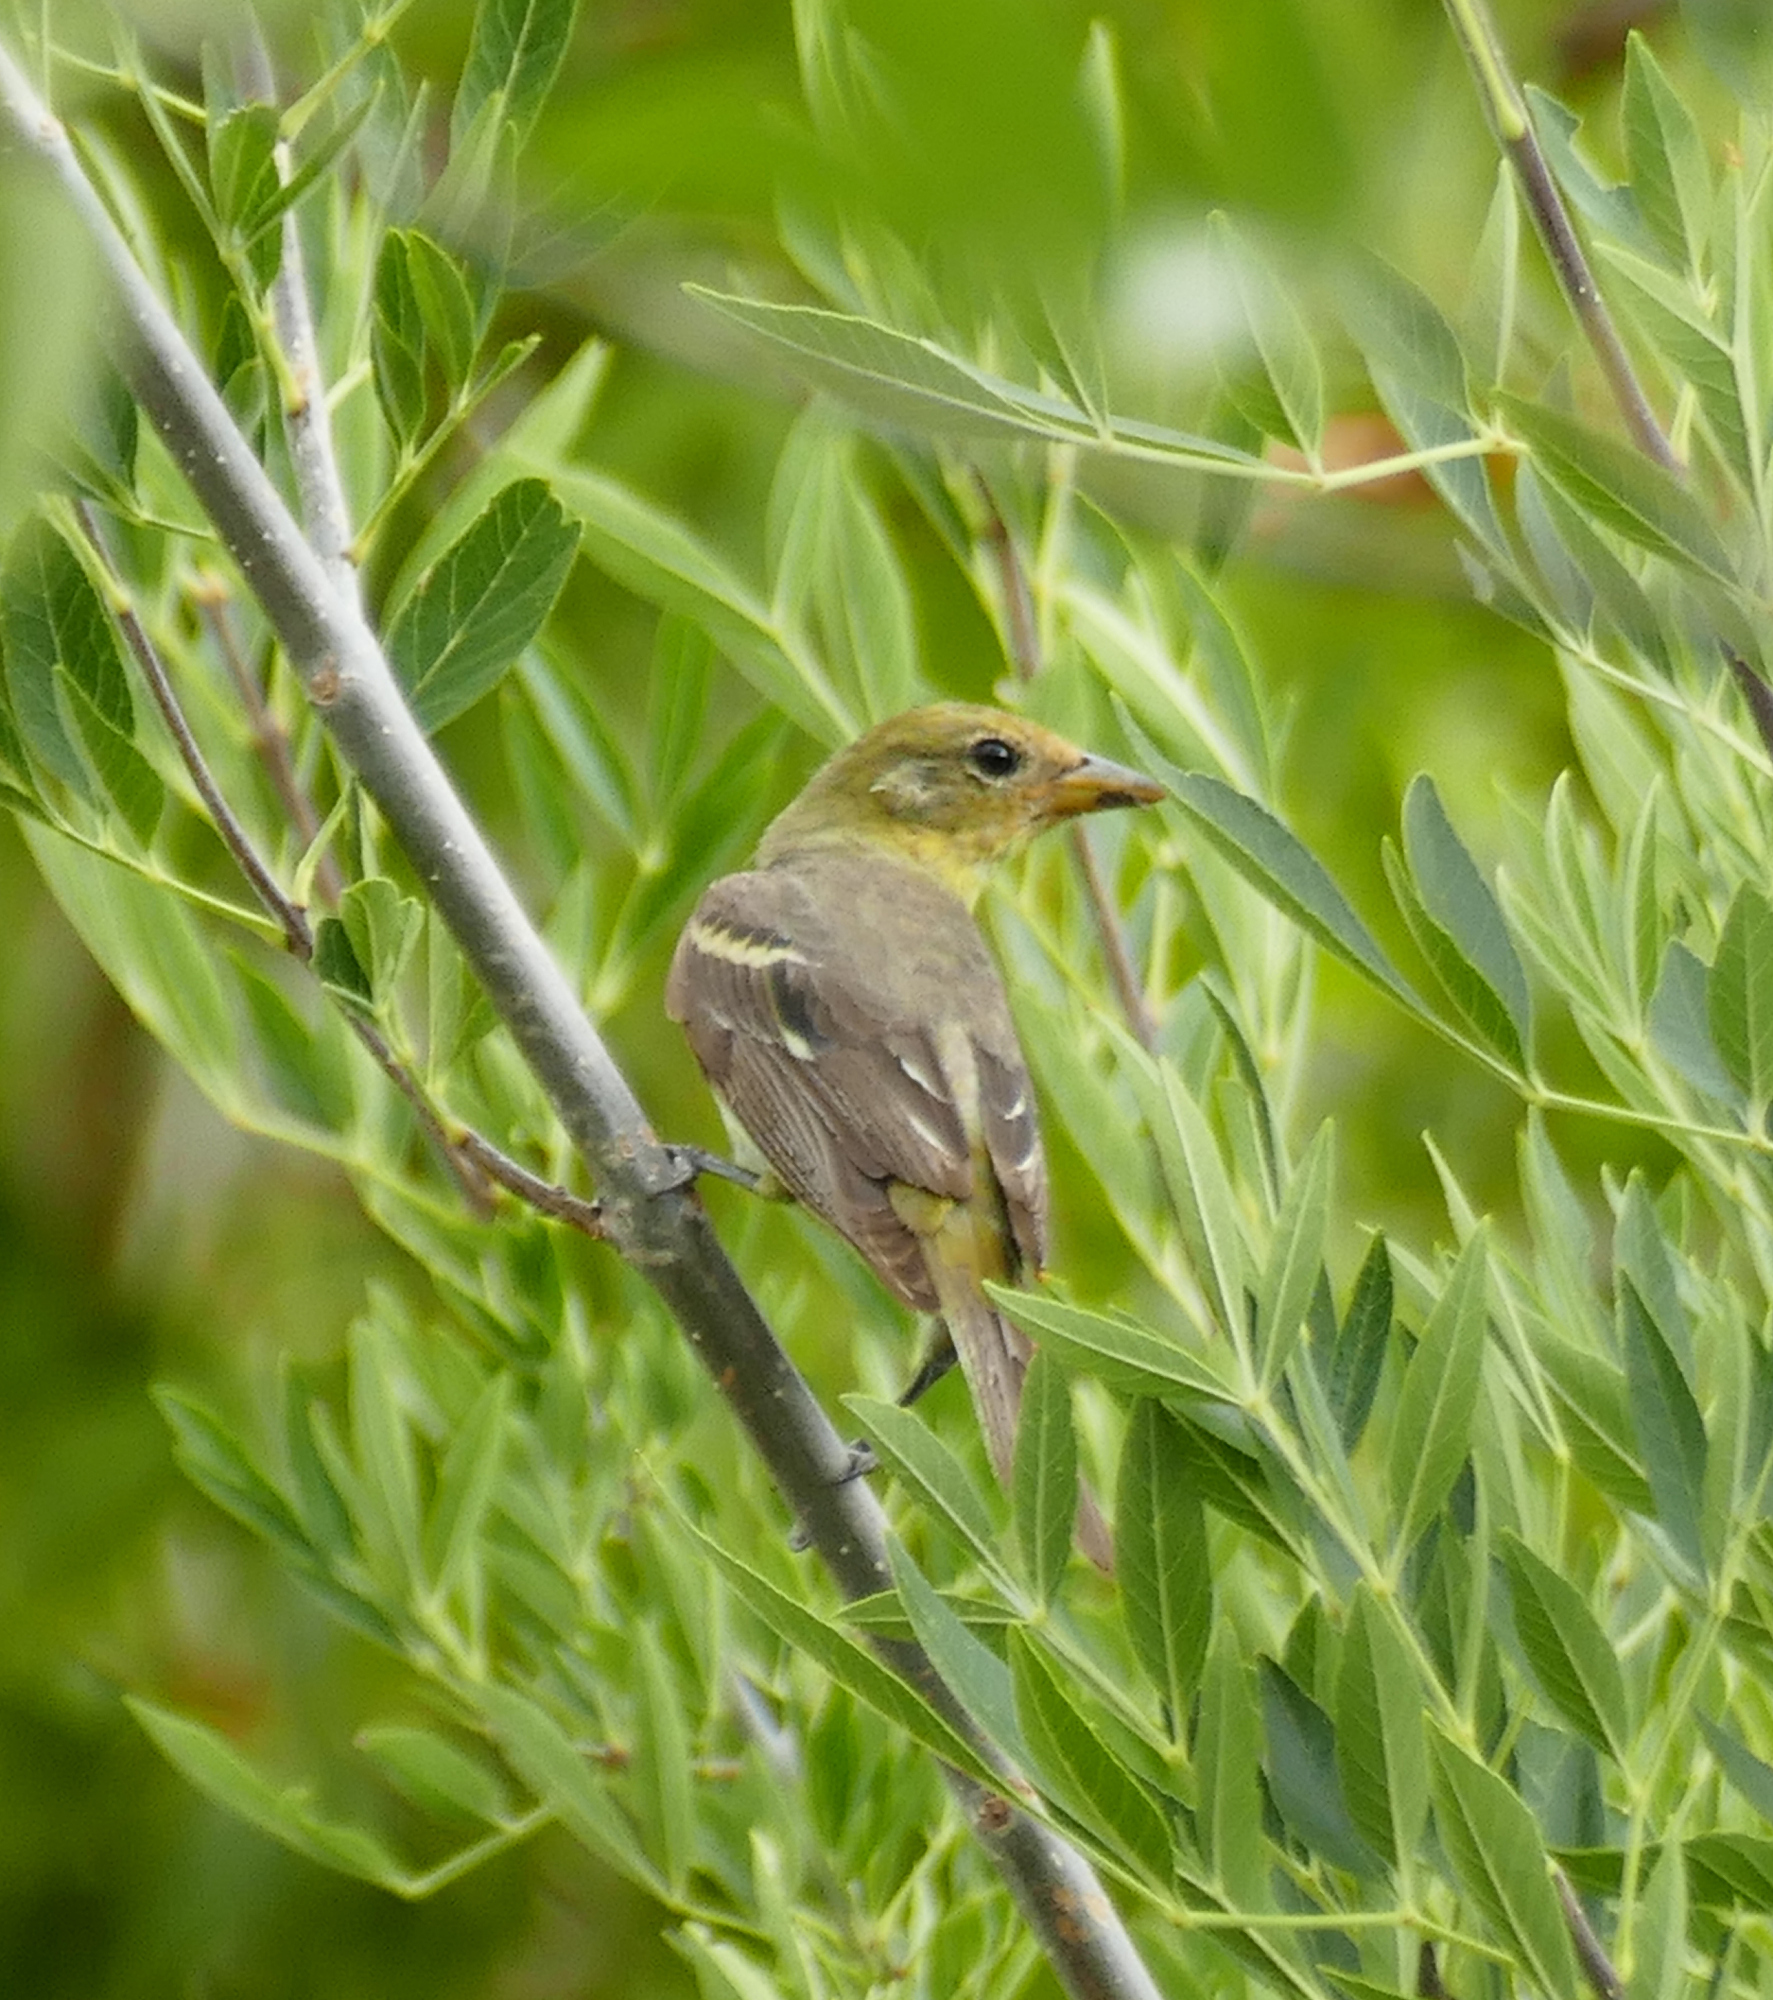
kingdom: Animalia
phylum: Chordata
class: Aves
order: Passeriformes
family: Cardinalidae
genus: Piranga
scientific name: Piranga ludoviciana
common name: Western tanager
